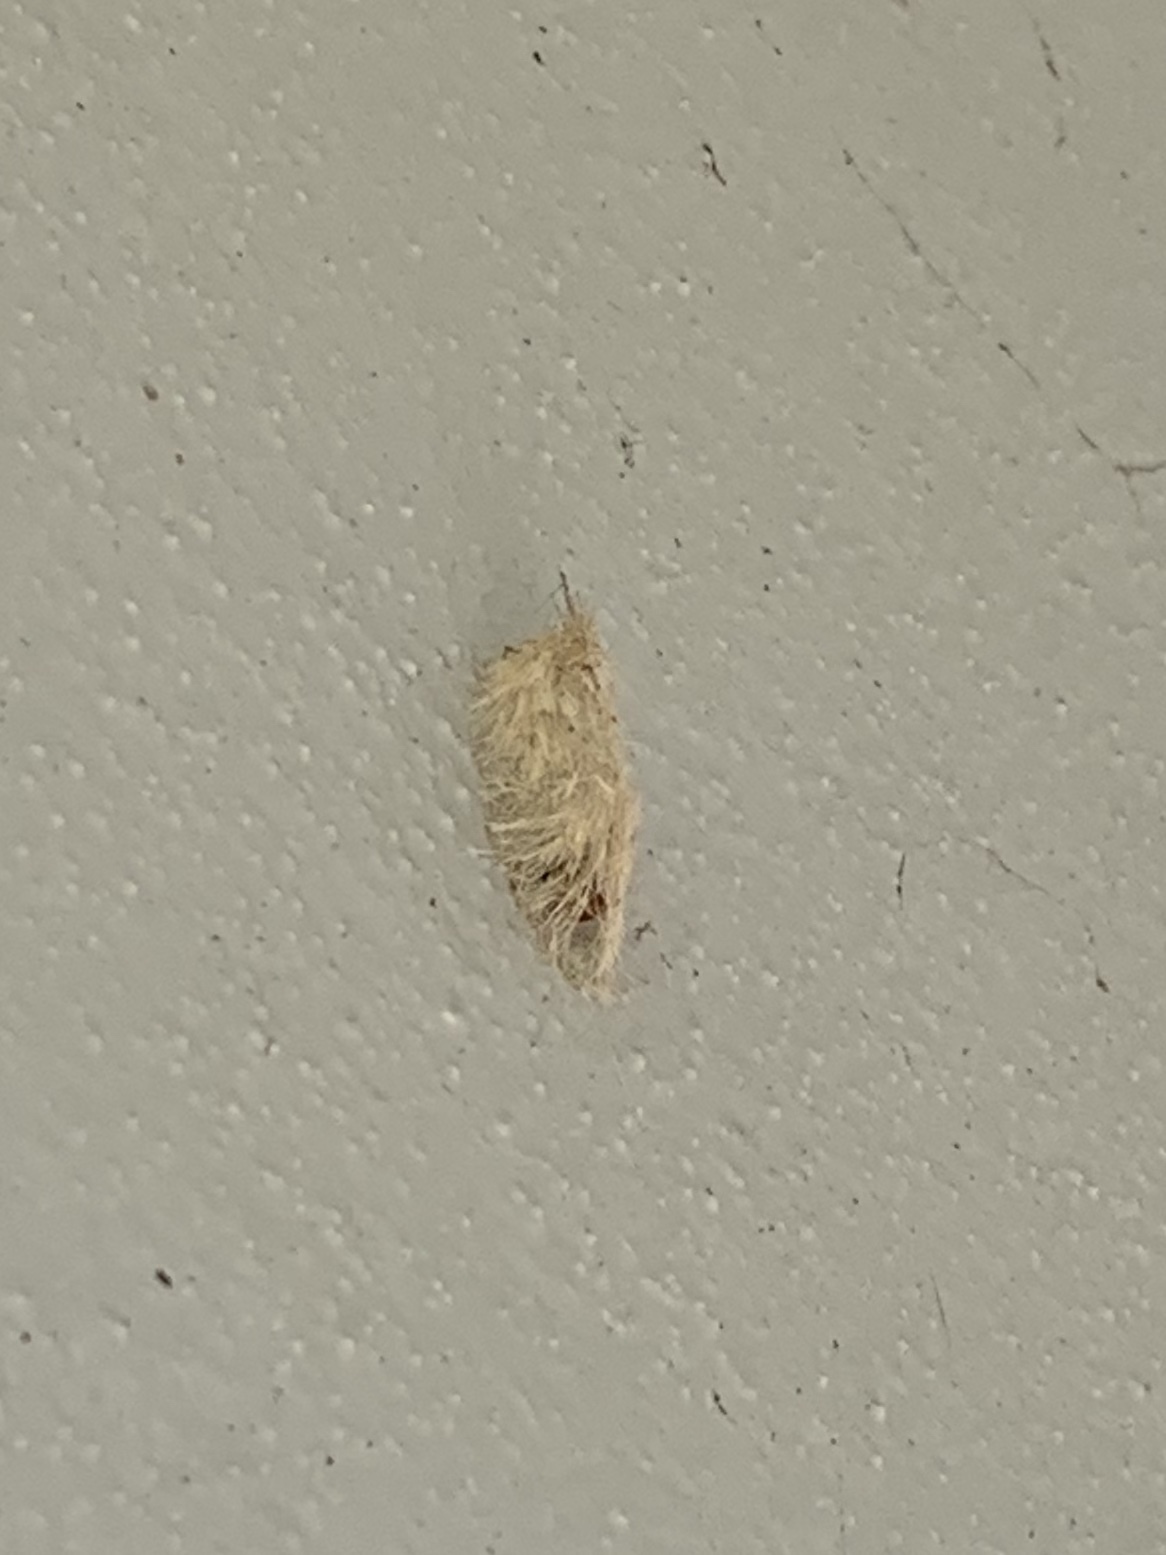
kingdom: Animalia
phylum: Arthropoda
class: Insecta
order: Lepidoptera
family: Erebidae
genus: Lymire
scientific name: Lymire edwardsii
